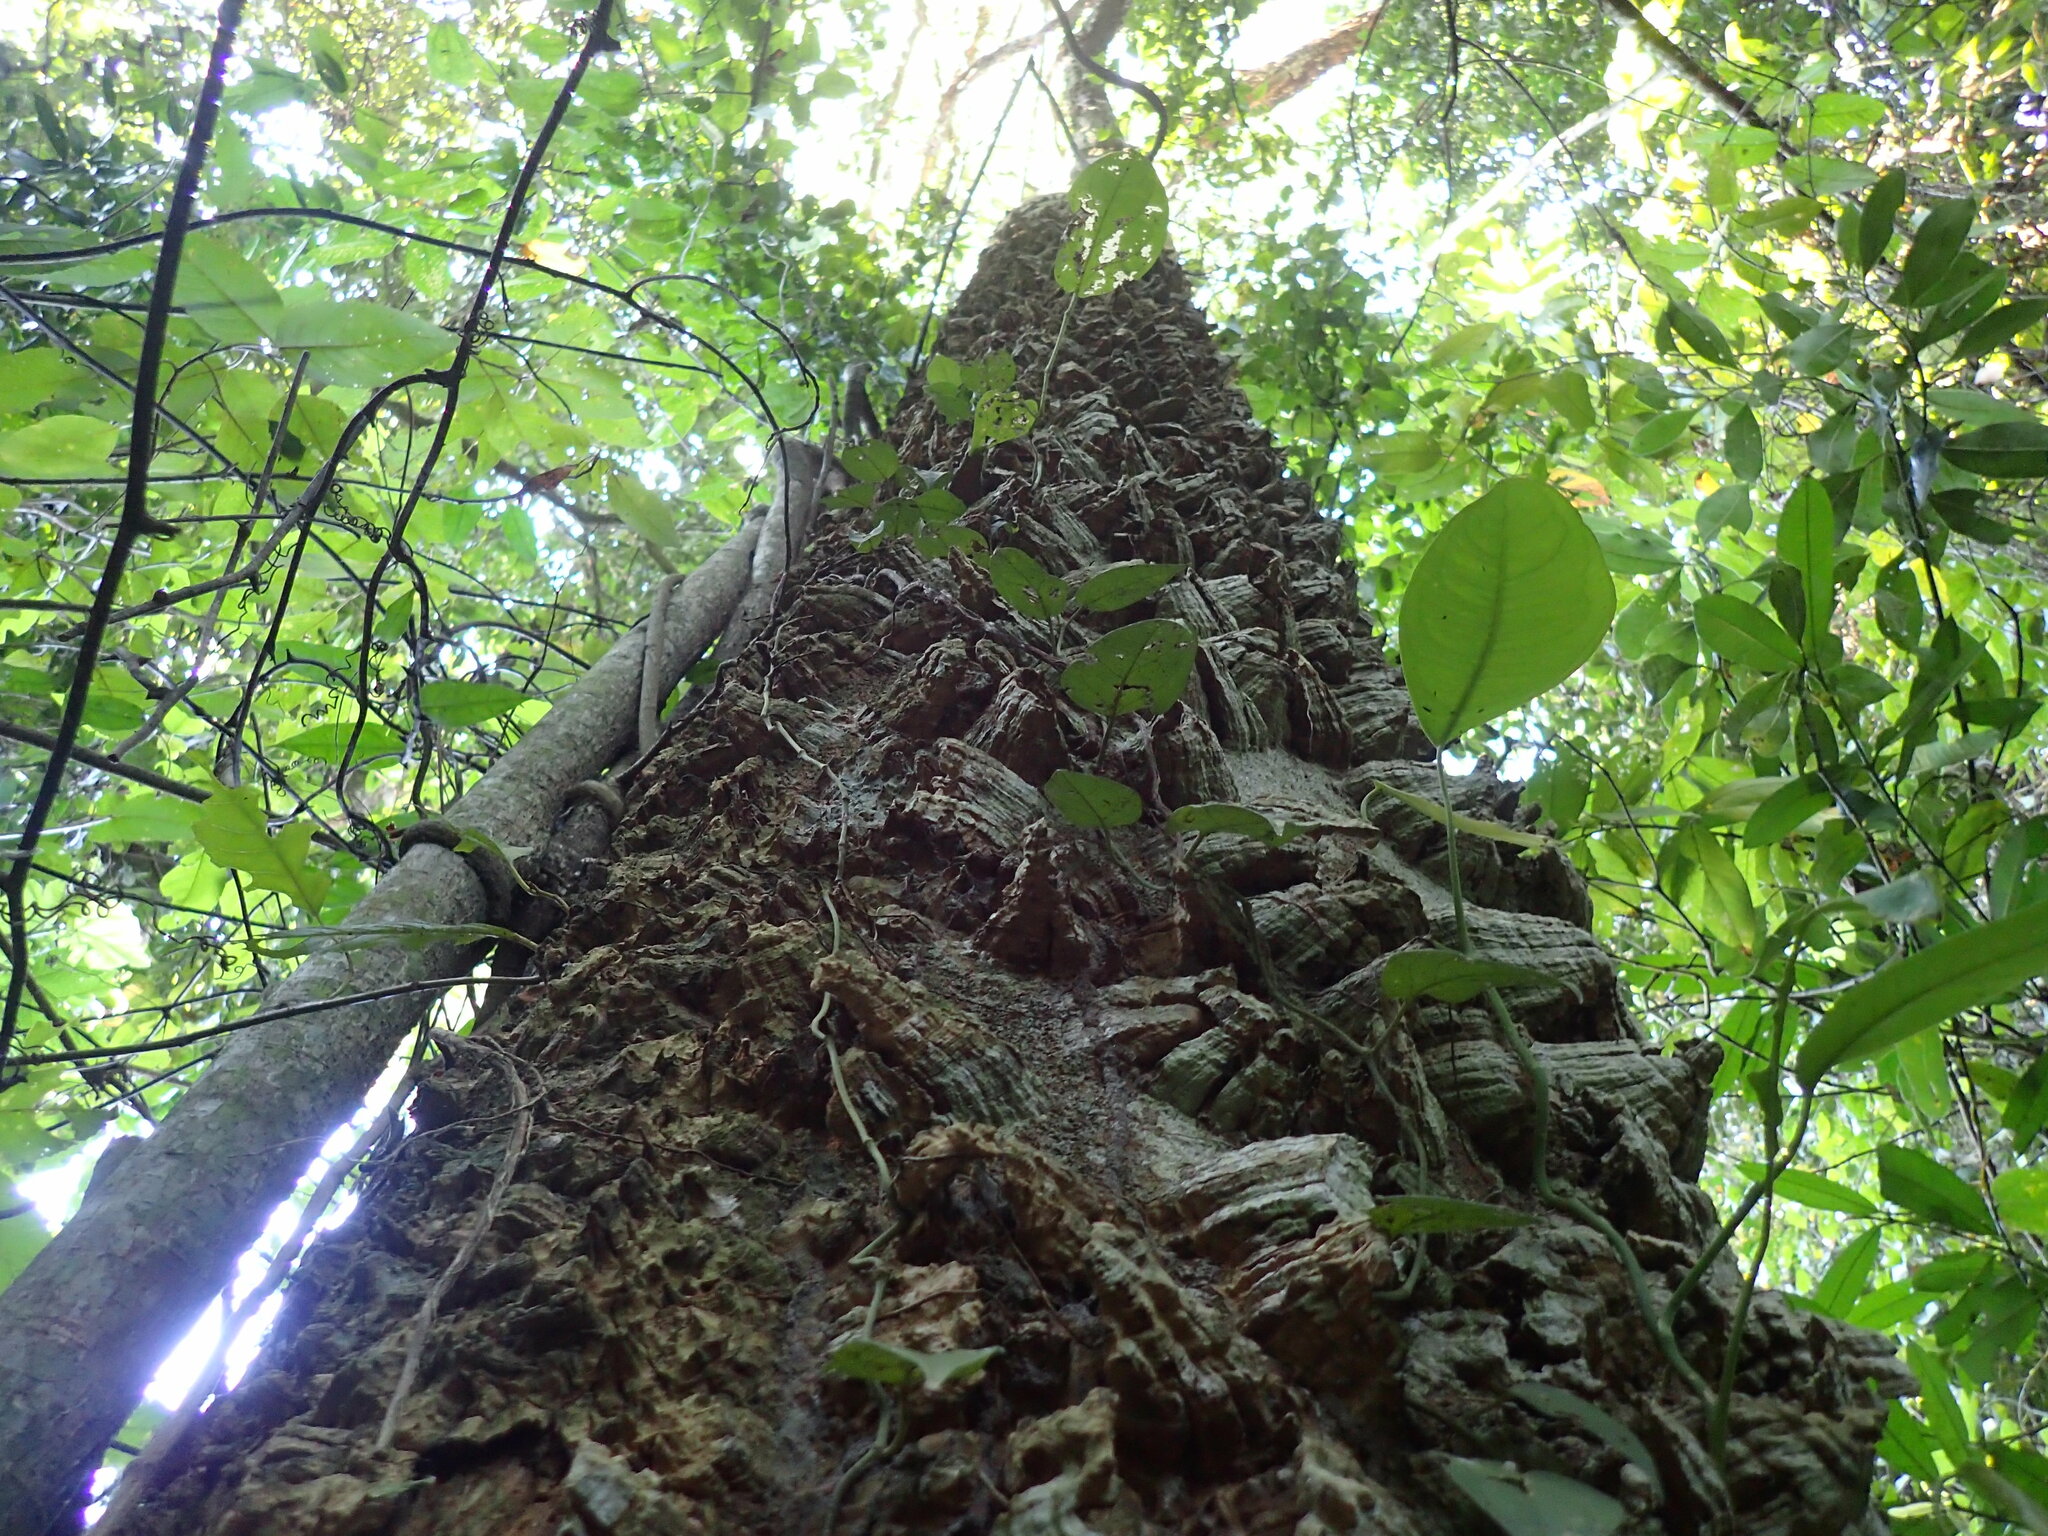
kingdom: Plantae
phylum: Tracheophyta
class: Magnoliopsida
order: Sapindales
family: Rutaceae
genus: Zanthoxylum
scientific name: Zanthoxylum gilletii
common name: African satinwood
